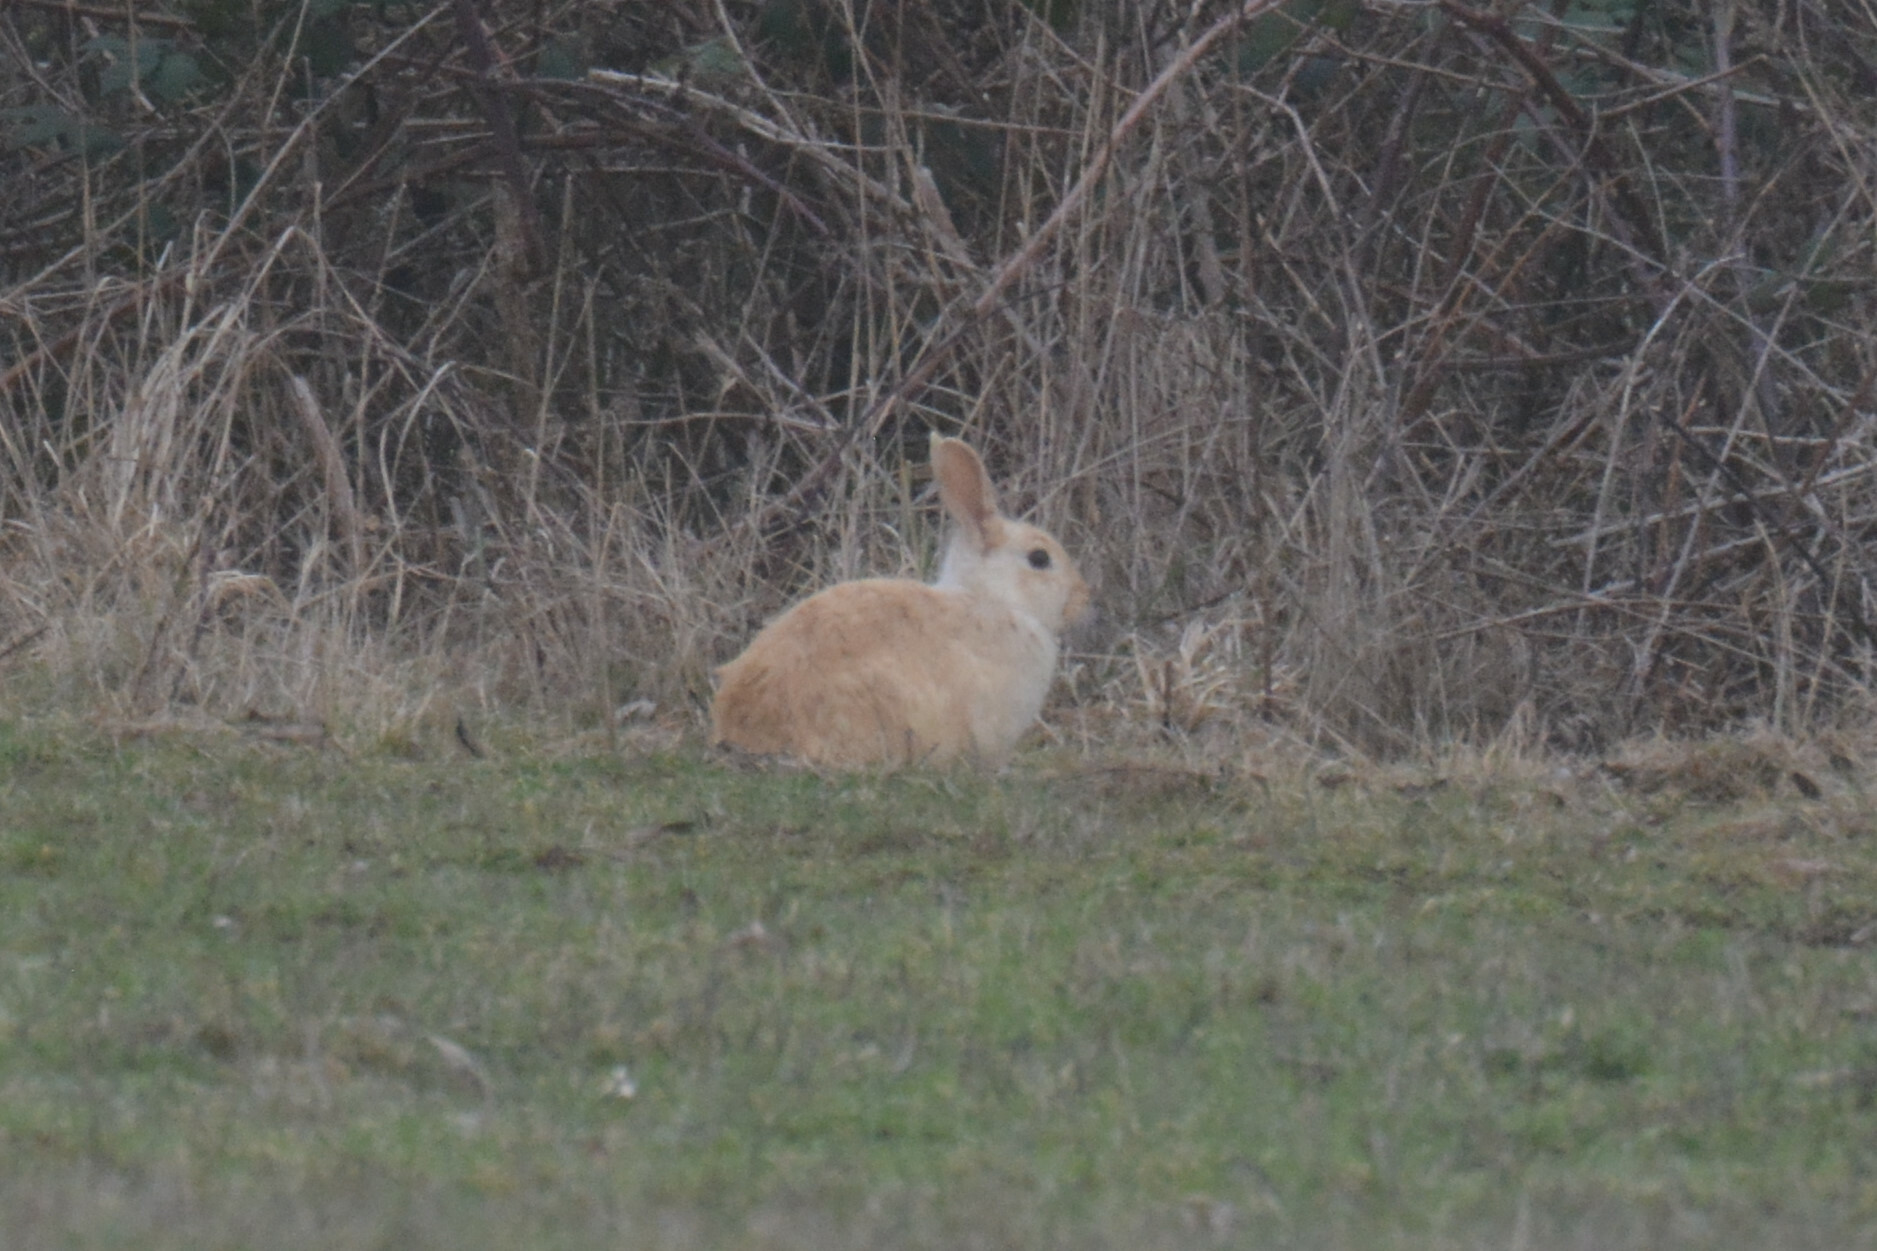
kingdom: Animalia
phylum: Chordata
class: Mammalia
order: Lagomorpha
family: Leporidae
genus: Oryctolagus
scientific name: Oryctolagus cuniculus
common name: European rabbit
